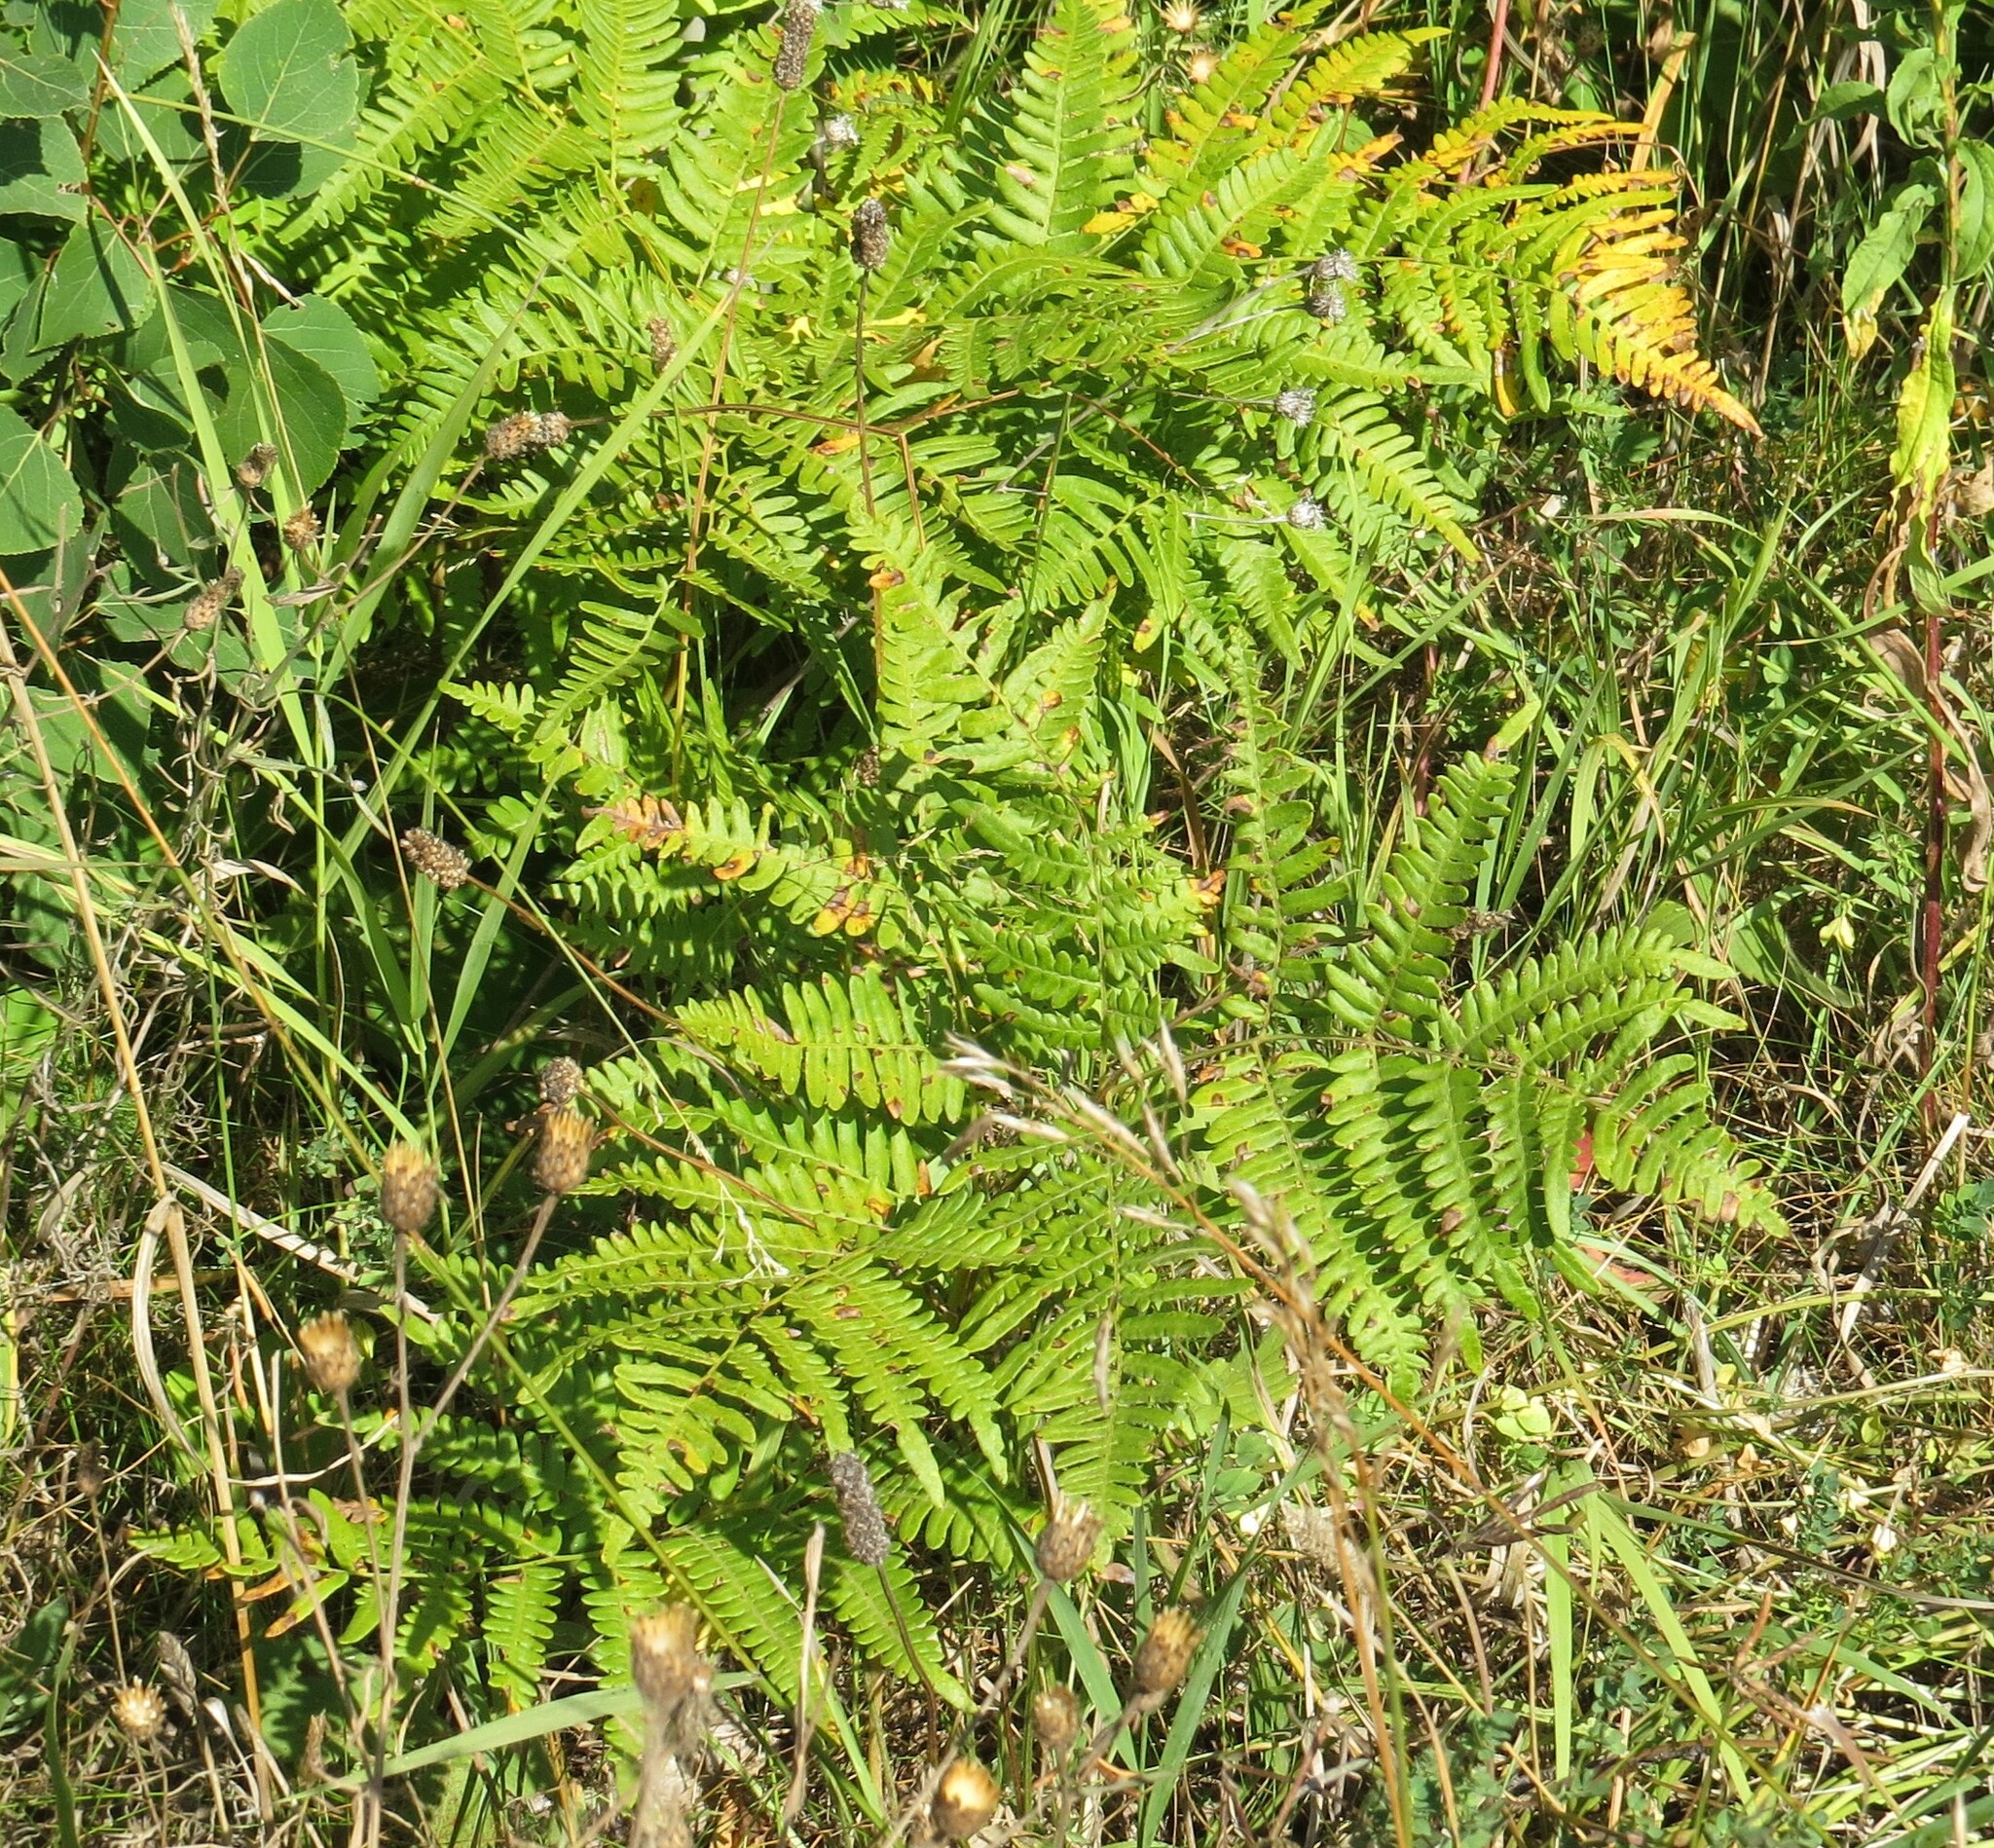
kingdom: Plantae
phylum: Tracheophyta
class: Polypodiopsida
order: Polypodiales
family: Dennstaedtiaceae
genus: Pteridium
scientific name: Pteridium aquilinum
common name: Bracken
